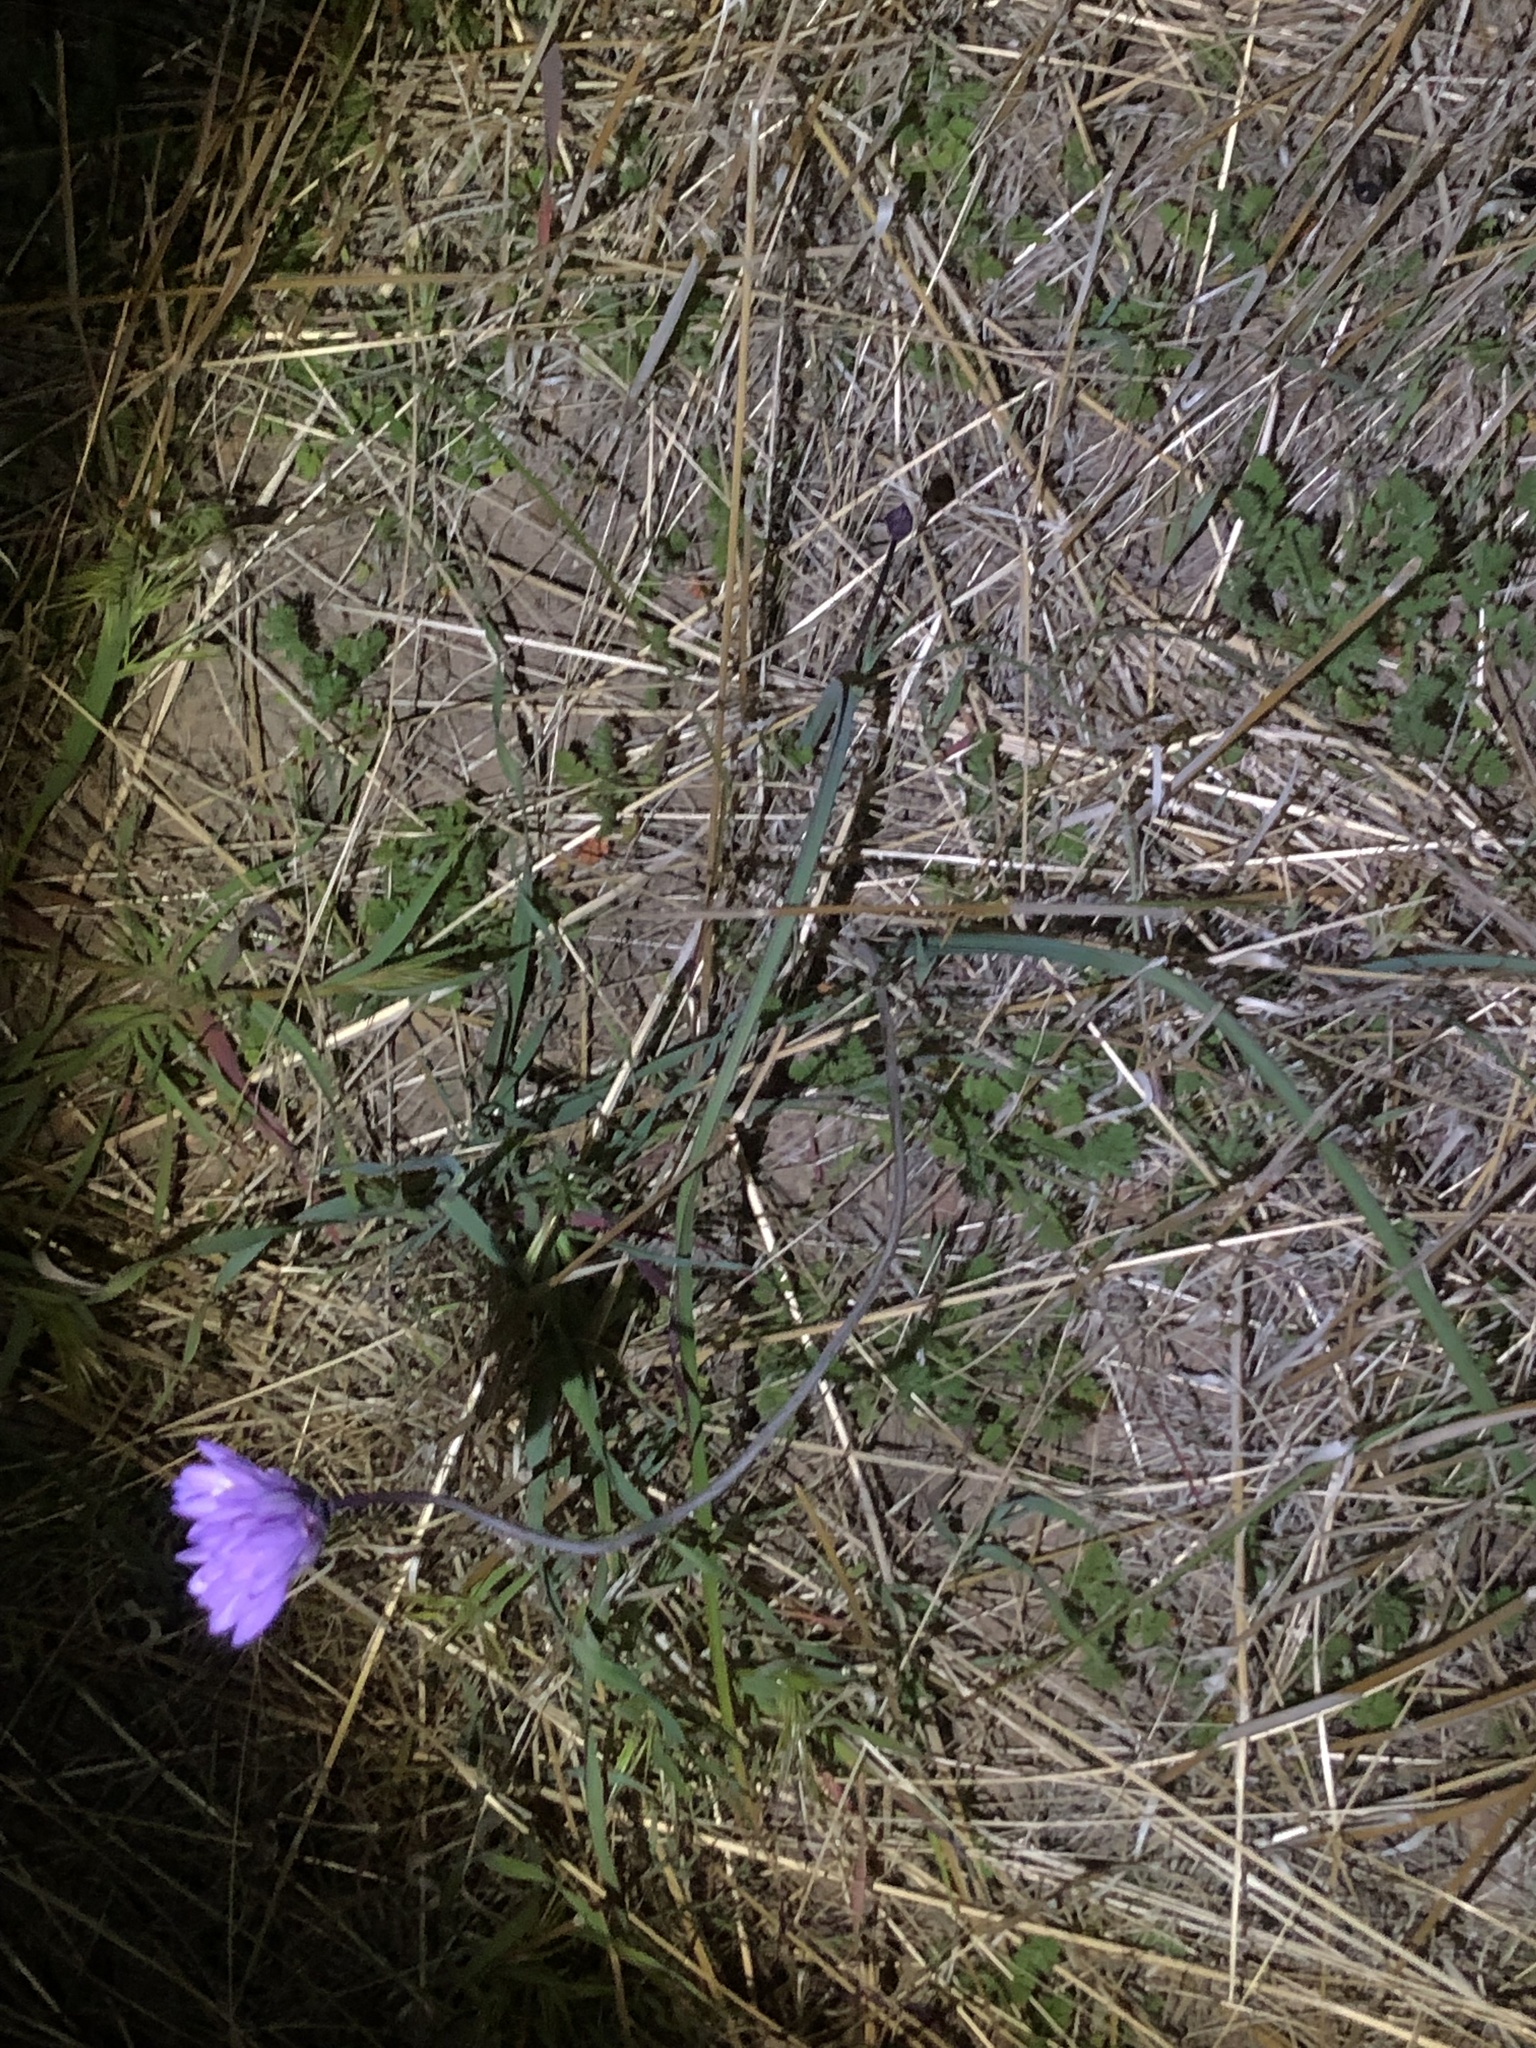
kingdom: Plantae
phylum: Tracheophyta
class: Liliopsida
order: Asparagales
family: Asparagaceae
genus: Dipterostemon
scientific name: Dipterostemon capitatus
